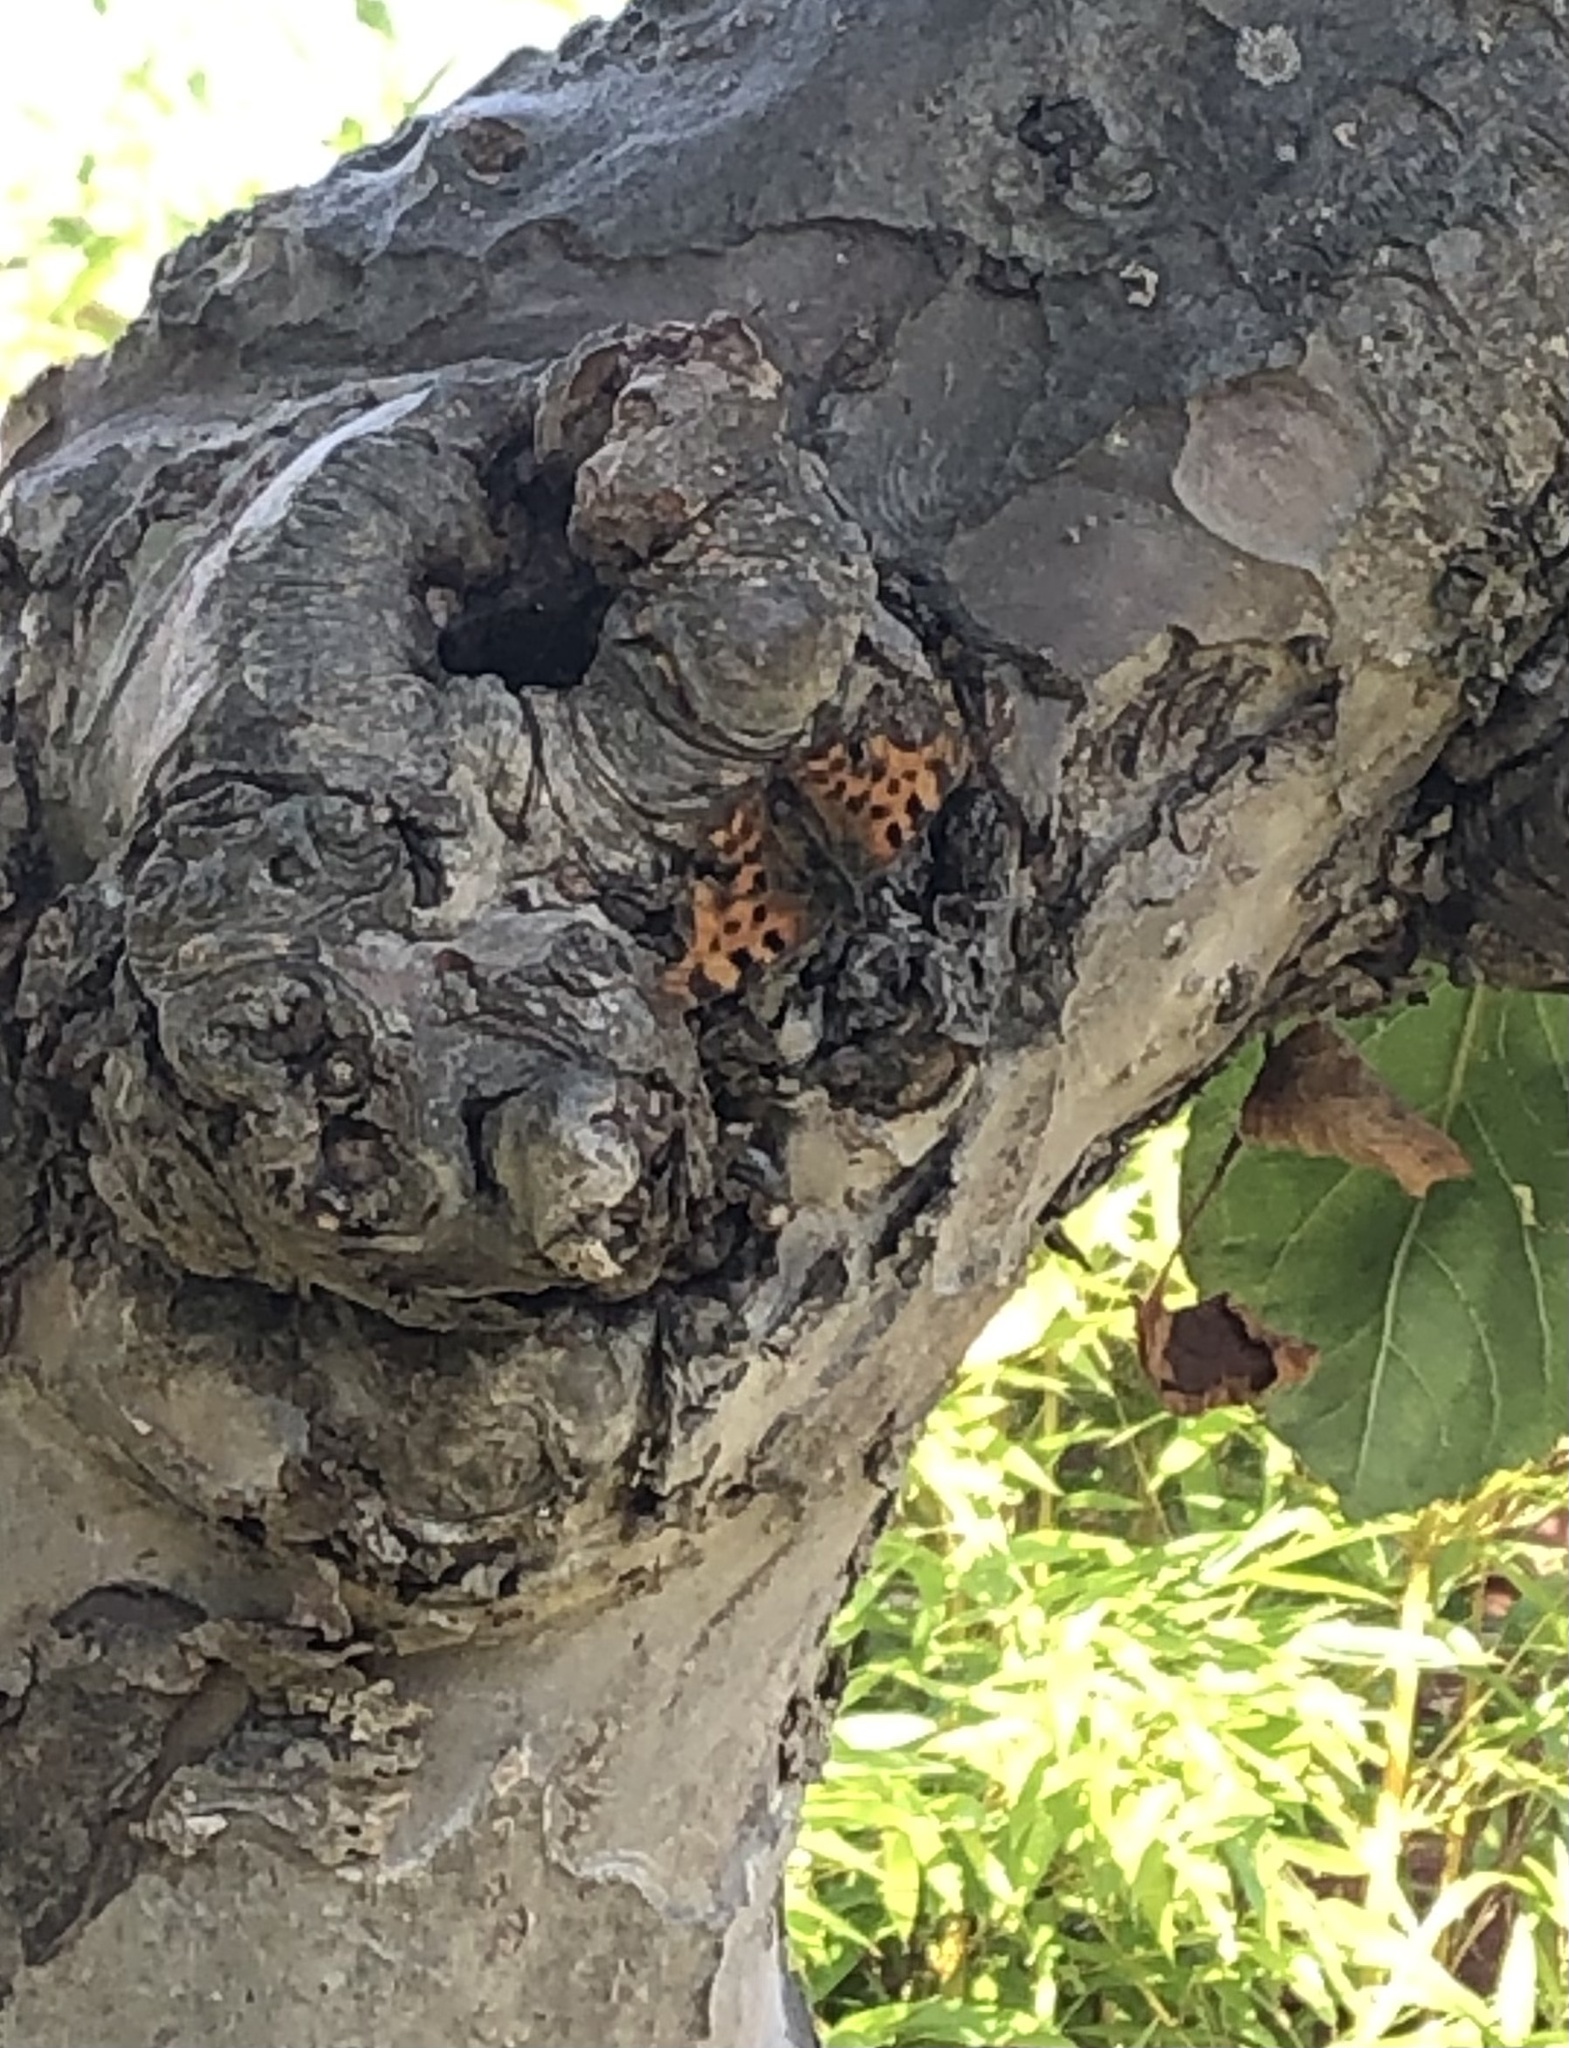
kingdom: Animalia
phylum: Arthropoda
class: Insecta
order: Lepidoptera
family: Nymphalidae
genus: Polygonia
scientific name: Polygonia c-album
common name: Comma
